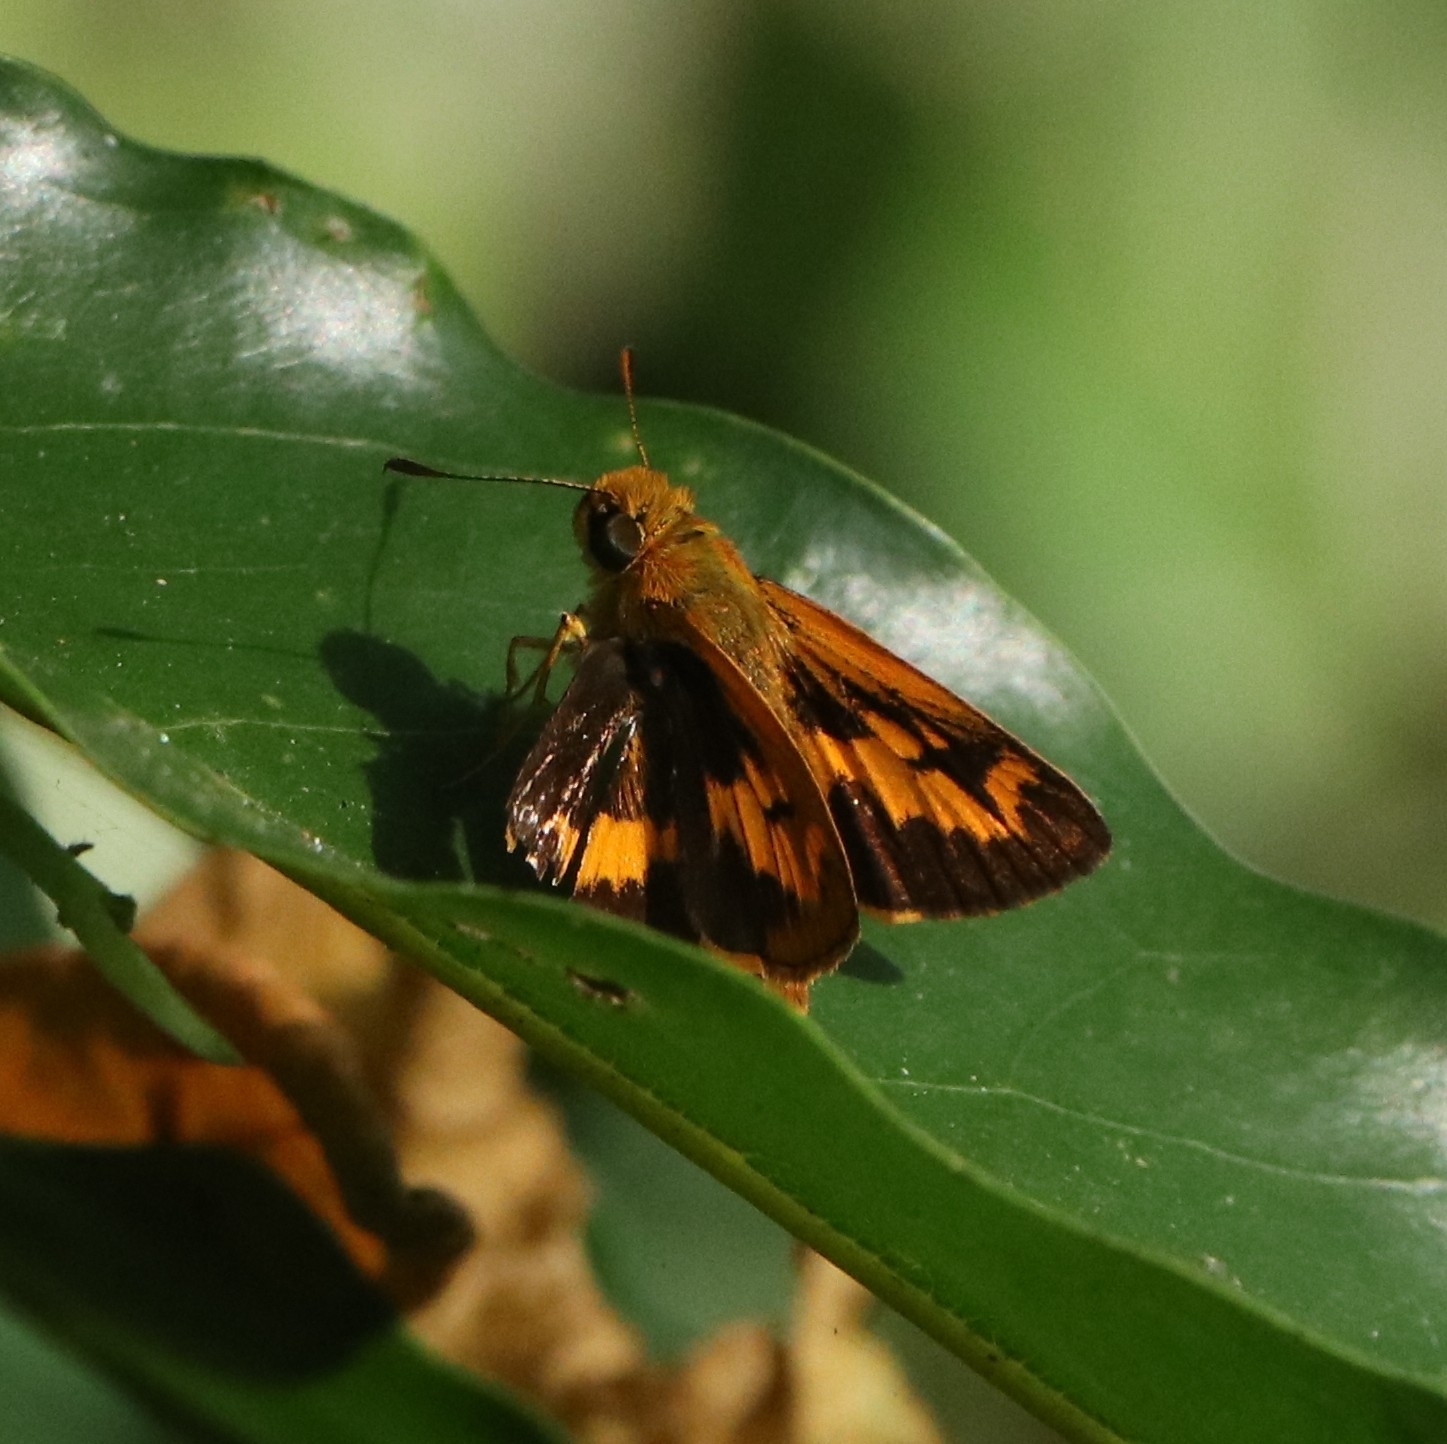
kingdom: Animalia
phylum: Arthropoda
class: Insecta
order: Lepidoptera
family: Hesperiidae
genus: Oriens
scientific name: Oriens goloides
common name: Smaller dartlet
